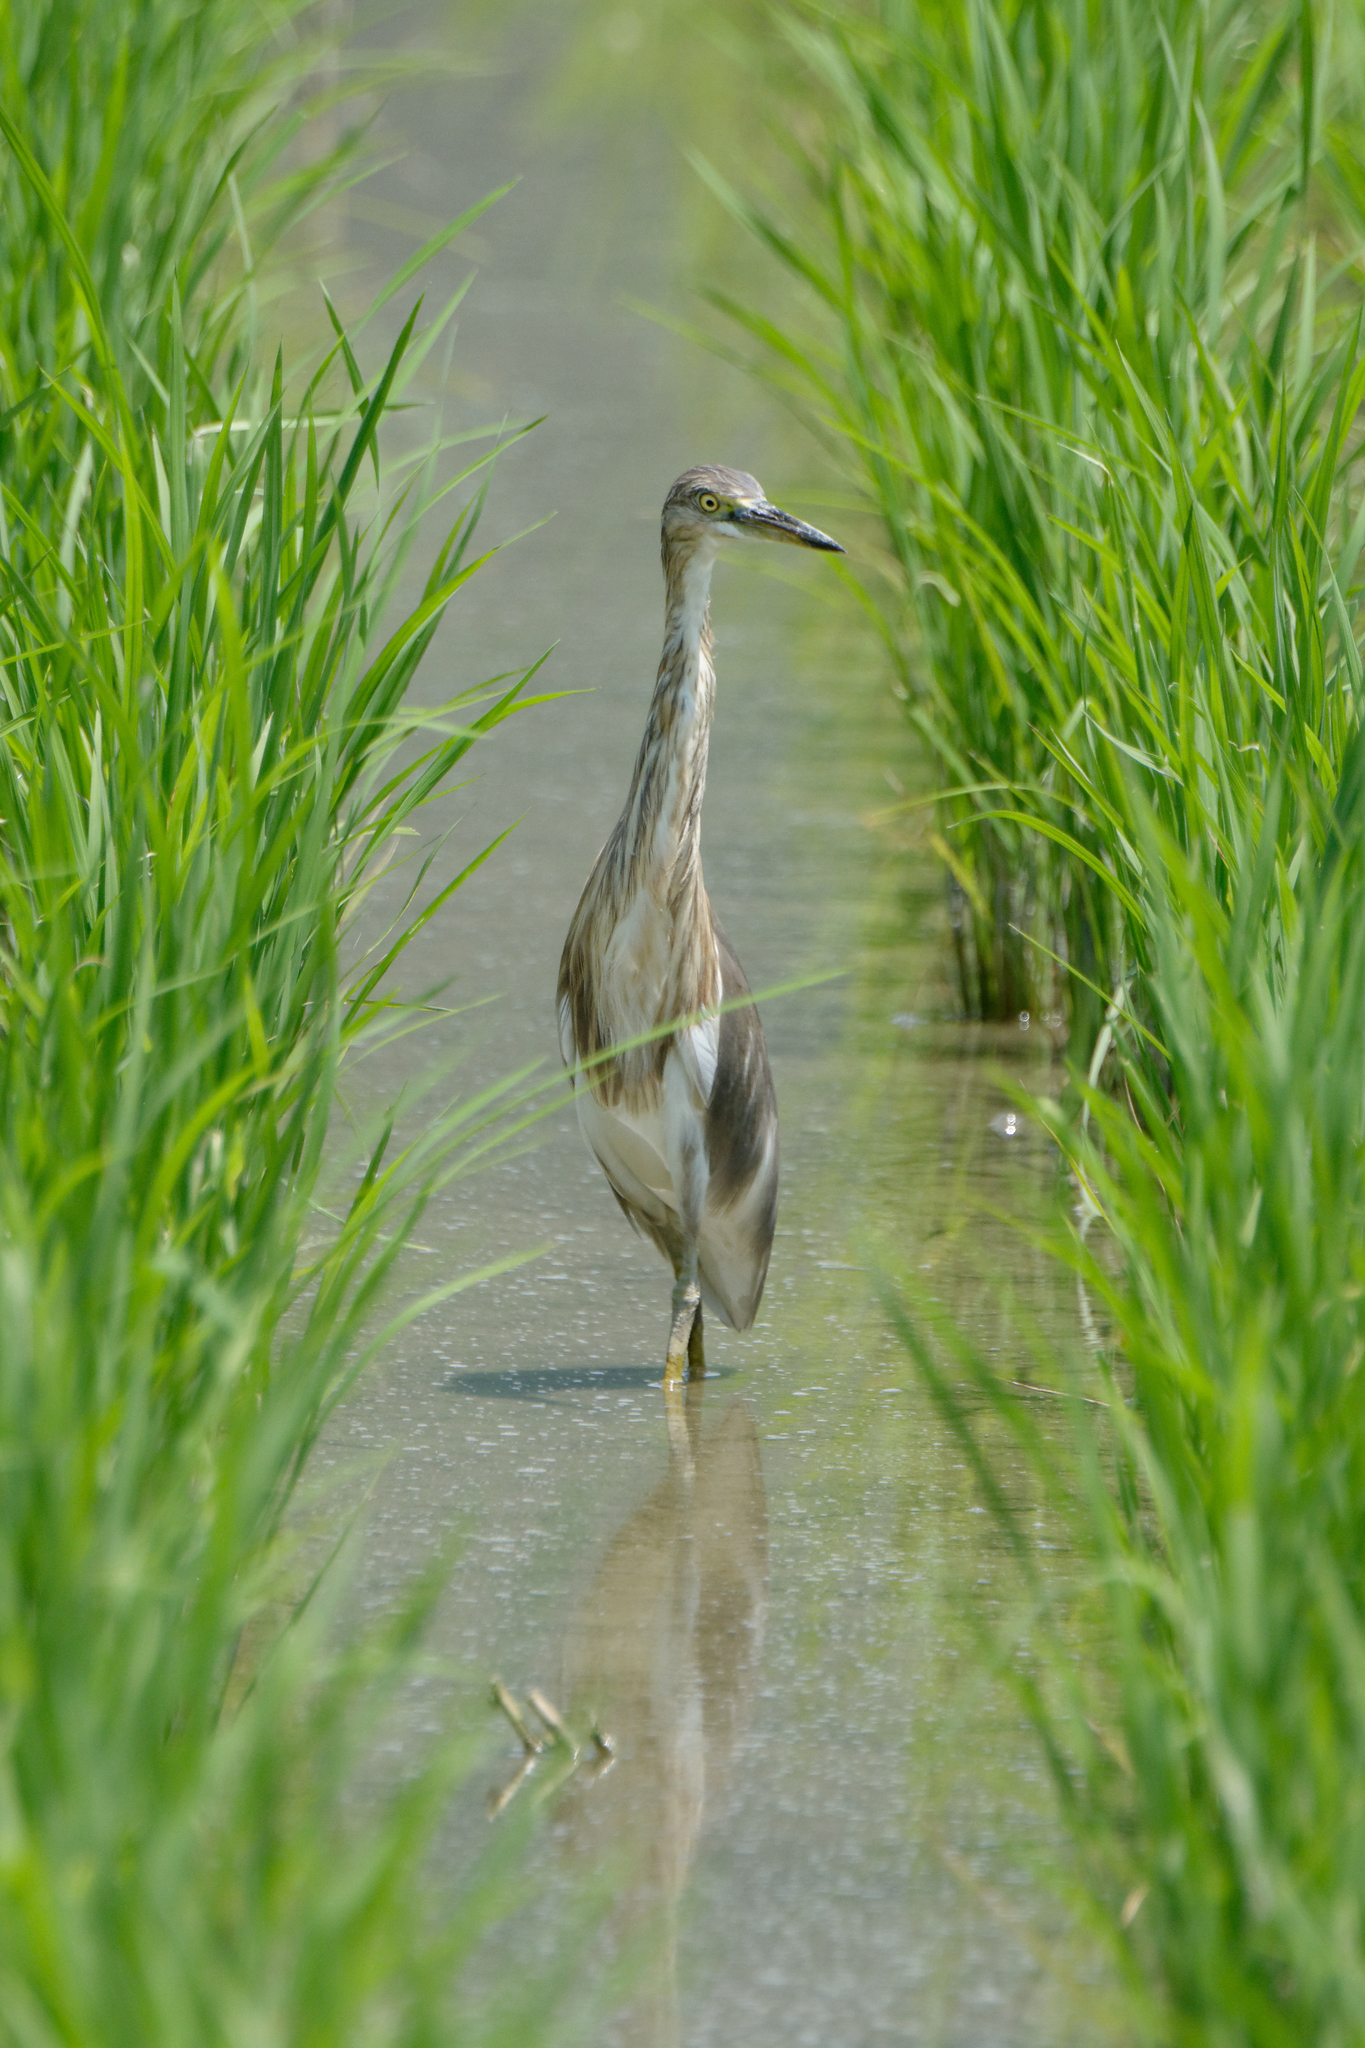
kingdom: Animalia
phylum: Chordata
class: Aves
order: Pelecaniformes
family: Ardeidae
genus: Ardeola
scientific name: Ardeola speciosa
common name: Javan pond heron
